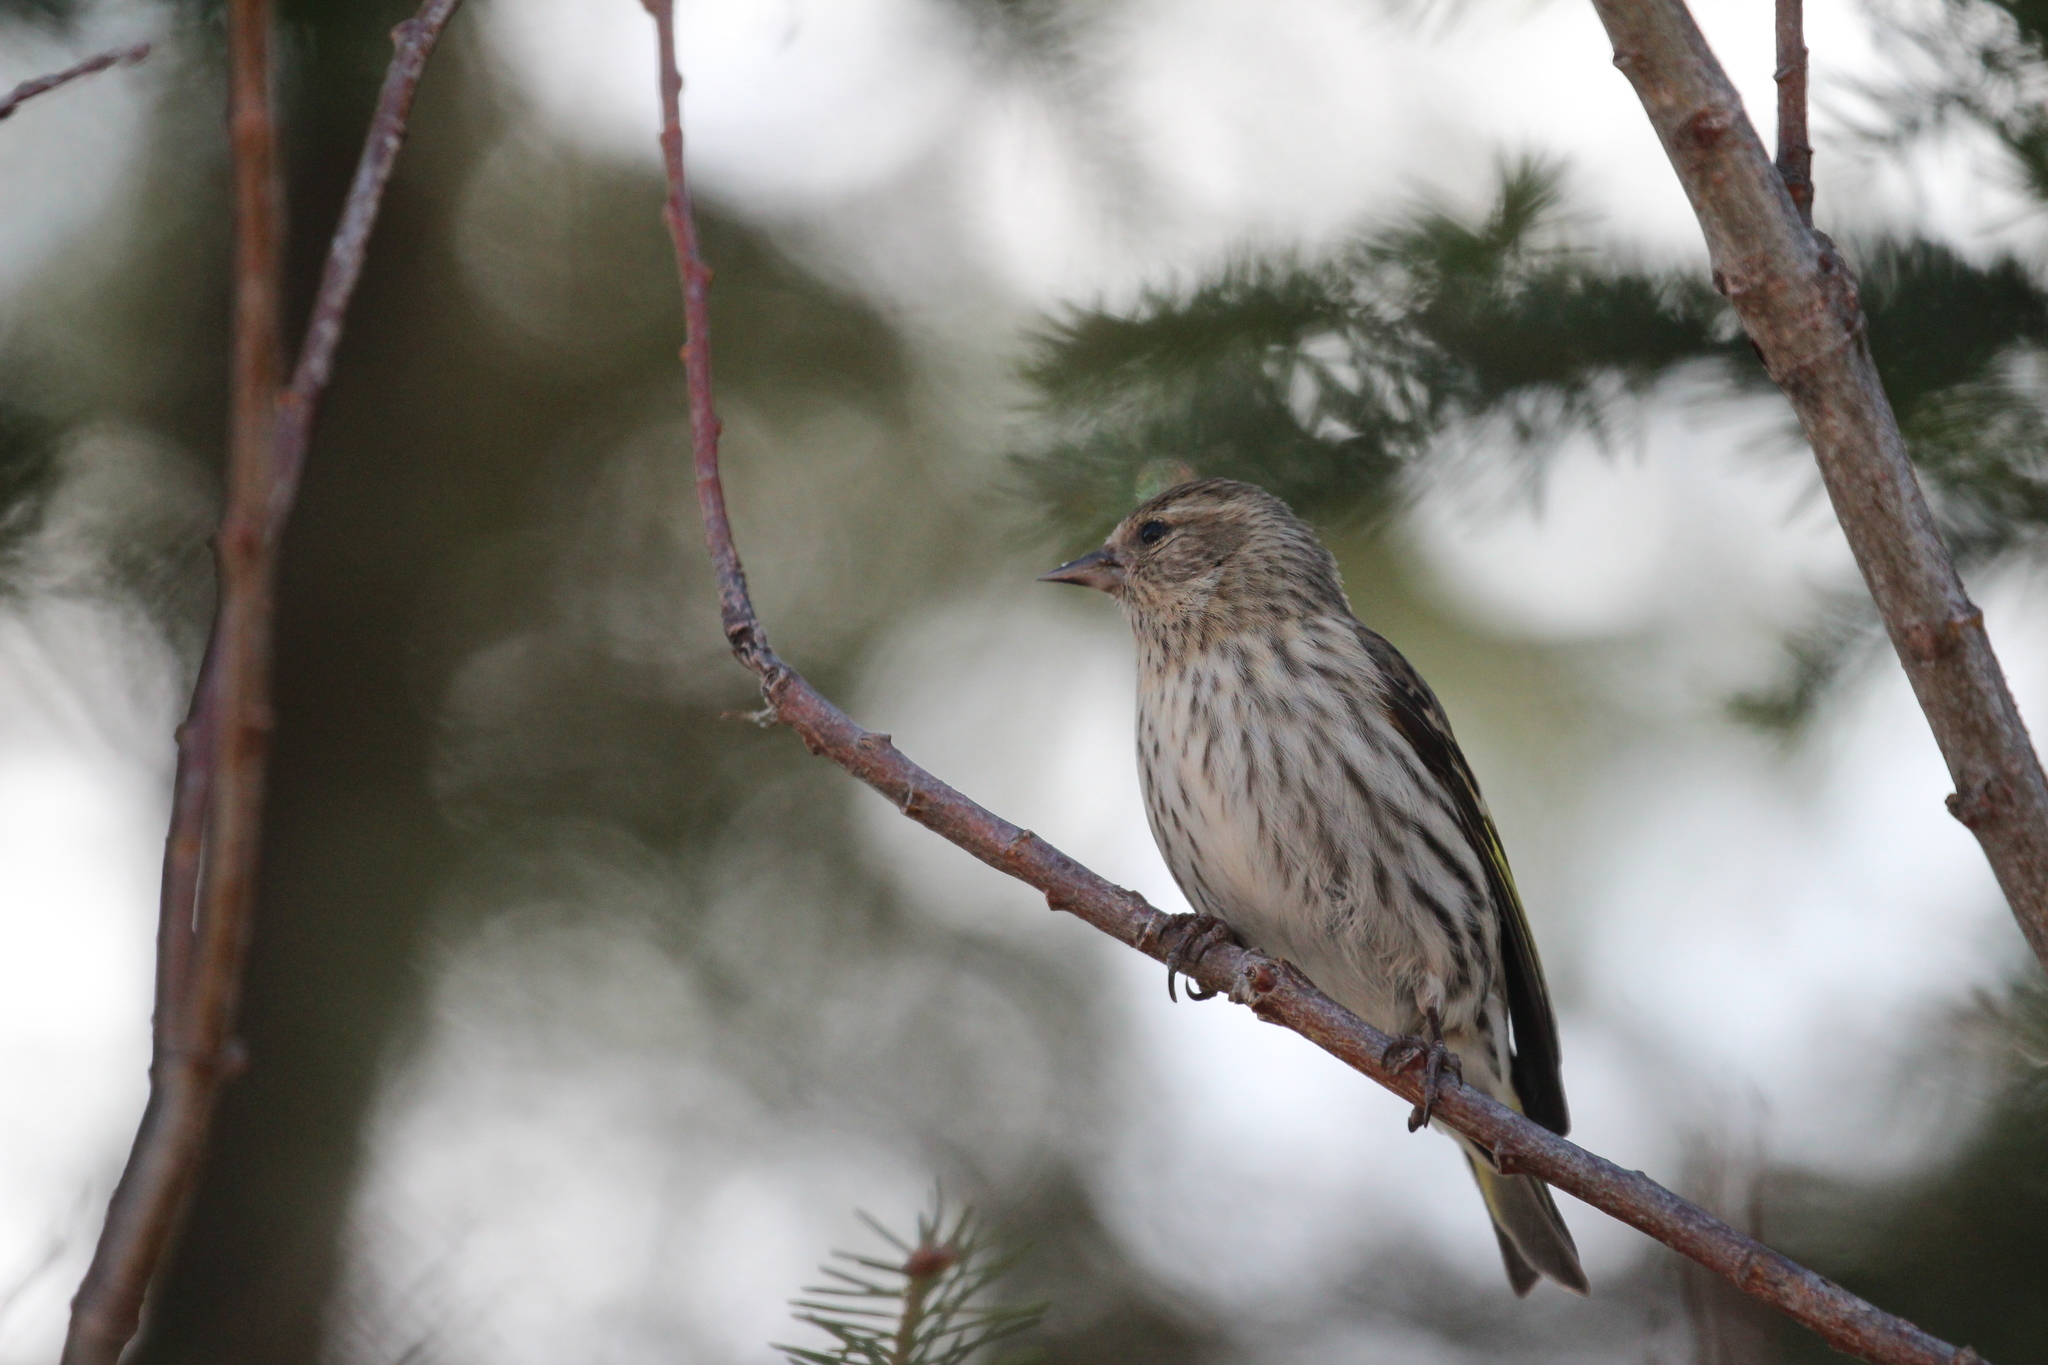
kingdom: Animalia
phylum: Chordata
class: Aves
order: Passeriformes
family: Fringillidae
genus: Spinus
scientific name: Spinus pinus
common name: Pine siskin
